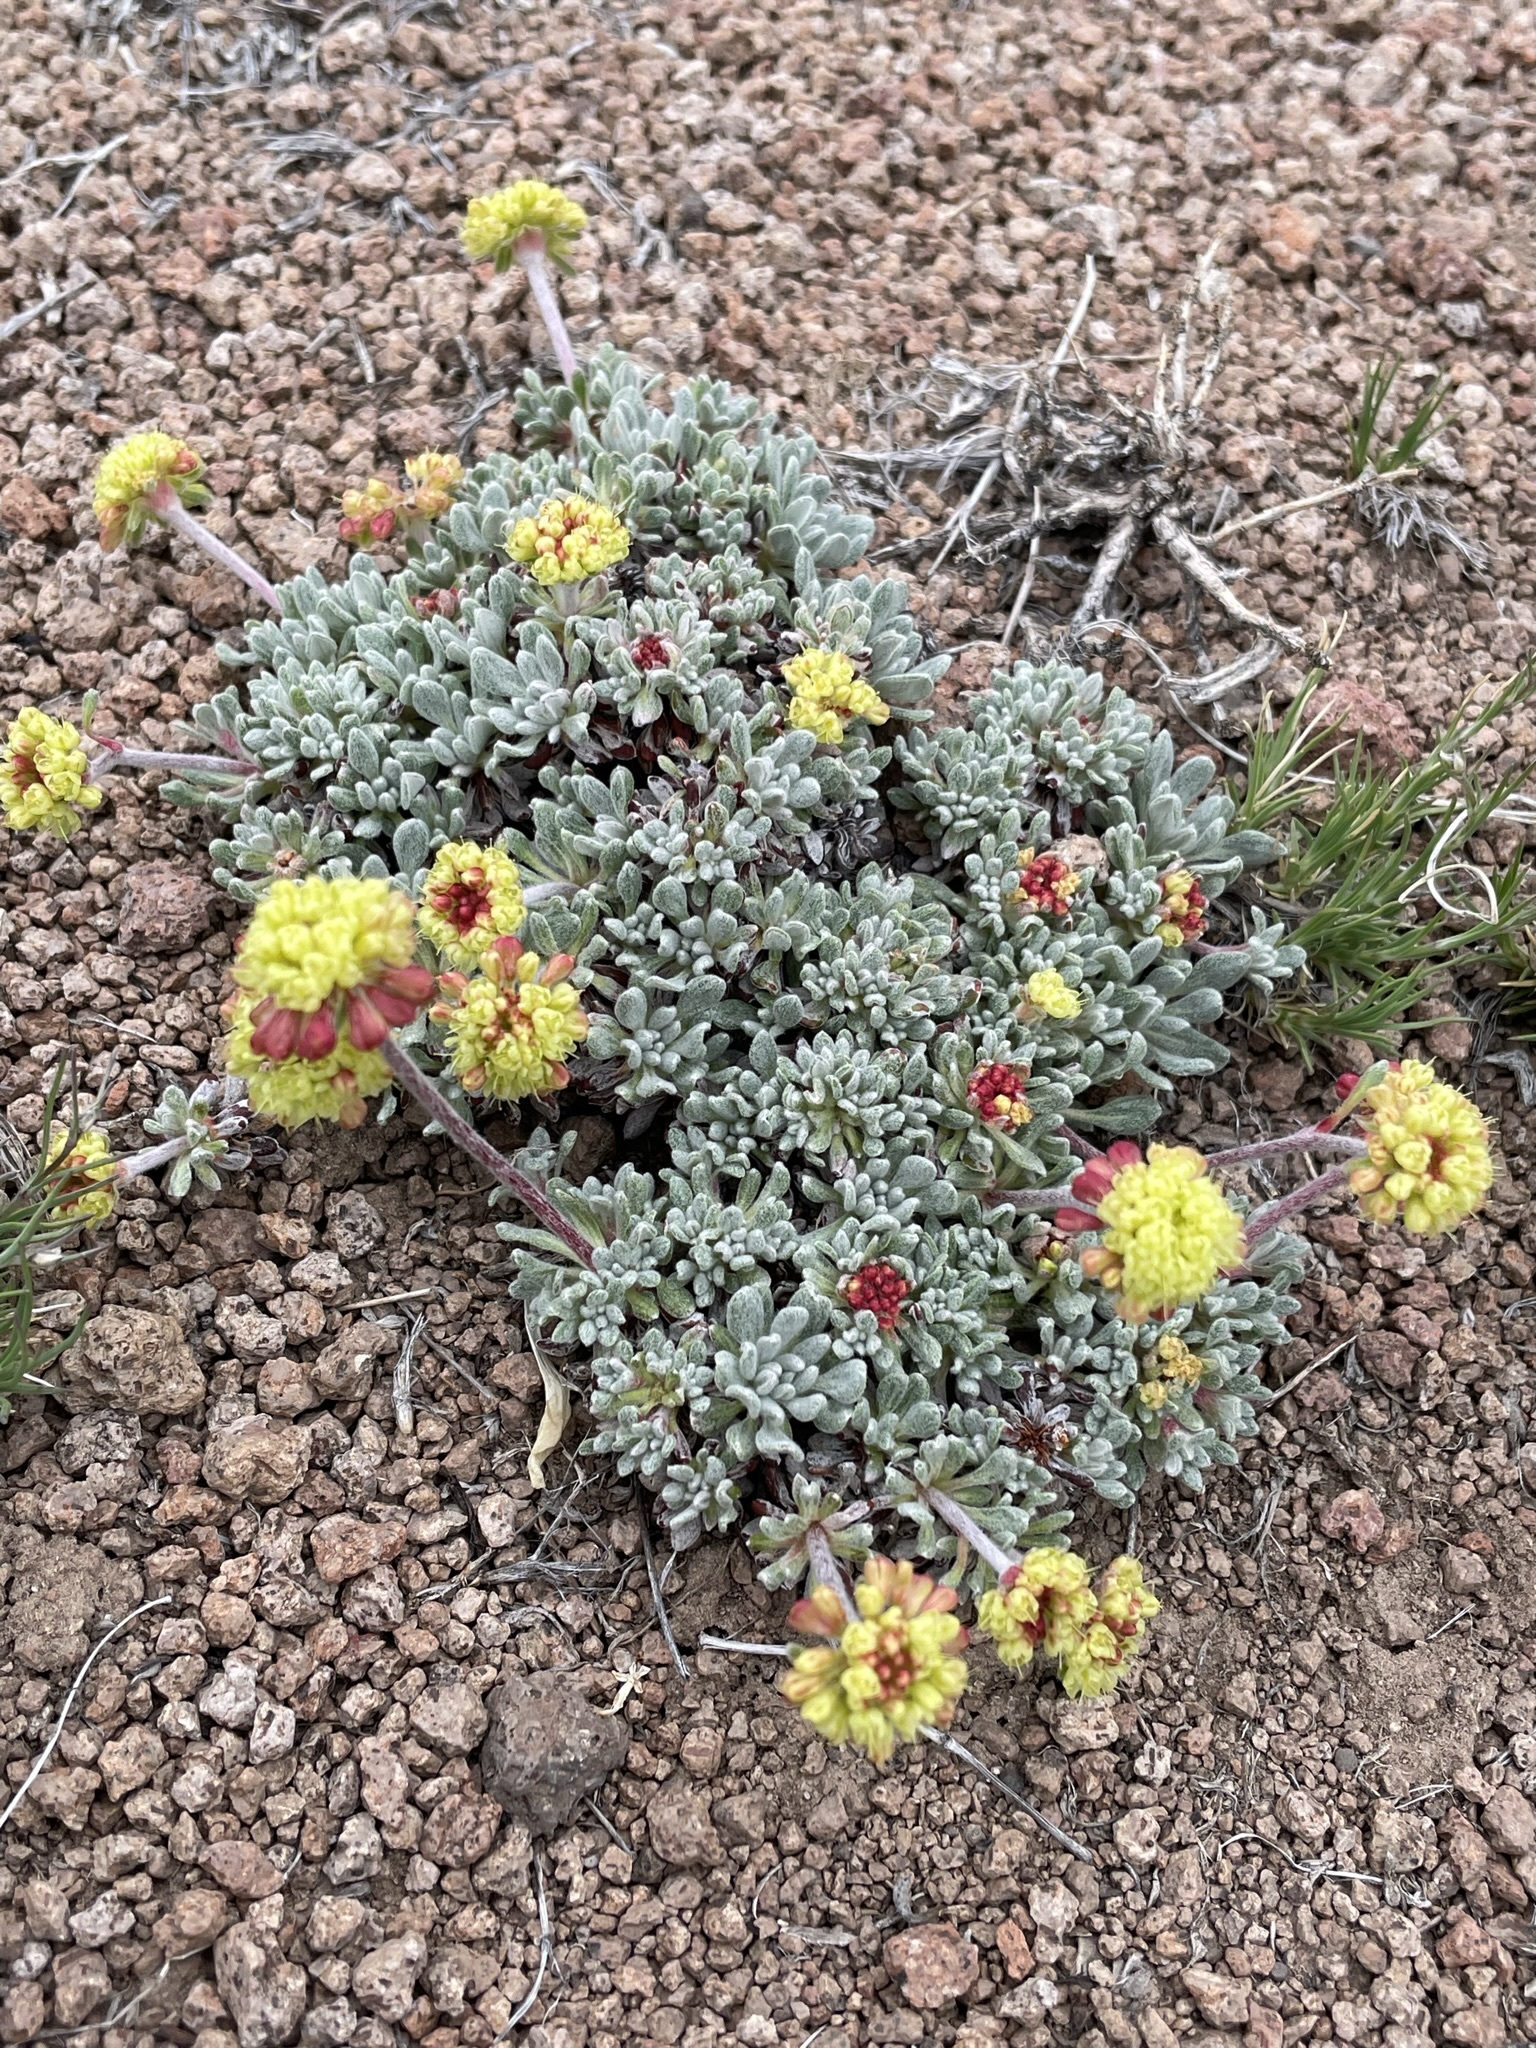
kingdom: Plantae
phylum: Tracheophyta
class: Magnoliopsida
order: Caryophyllales
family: Polygonaceae
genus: Eriogonum
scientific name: Eriogonum caespitosum
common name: Matted wild buckwheat
